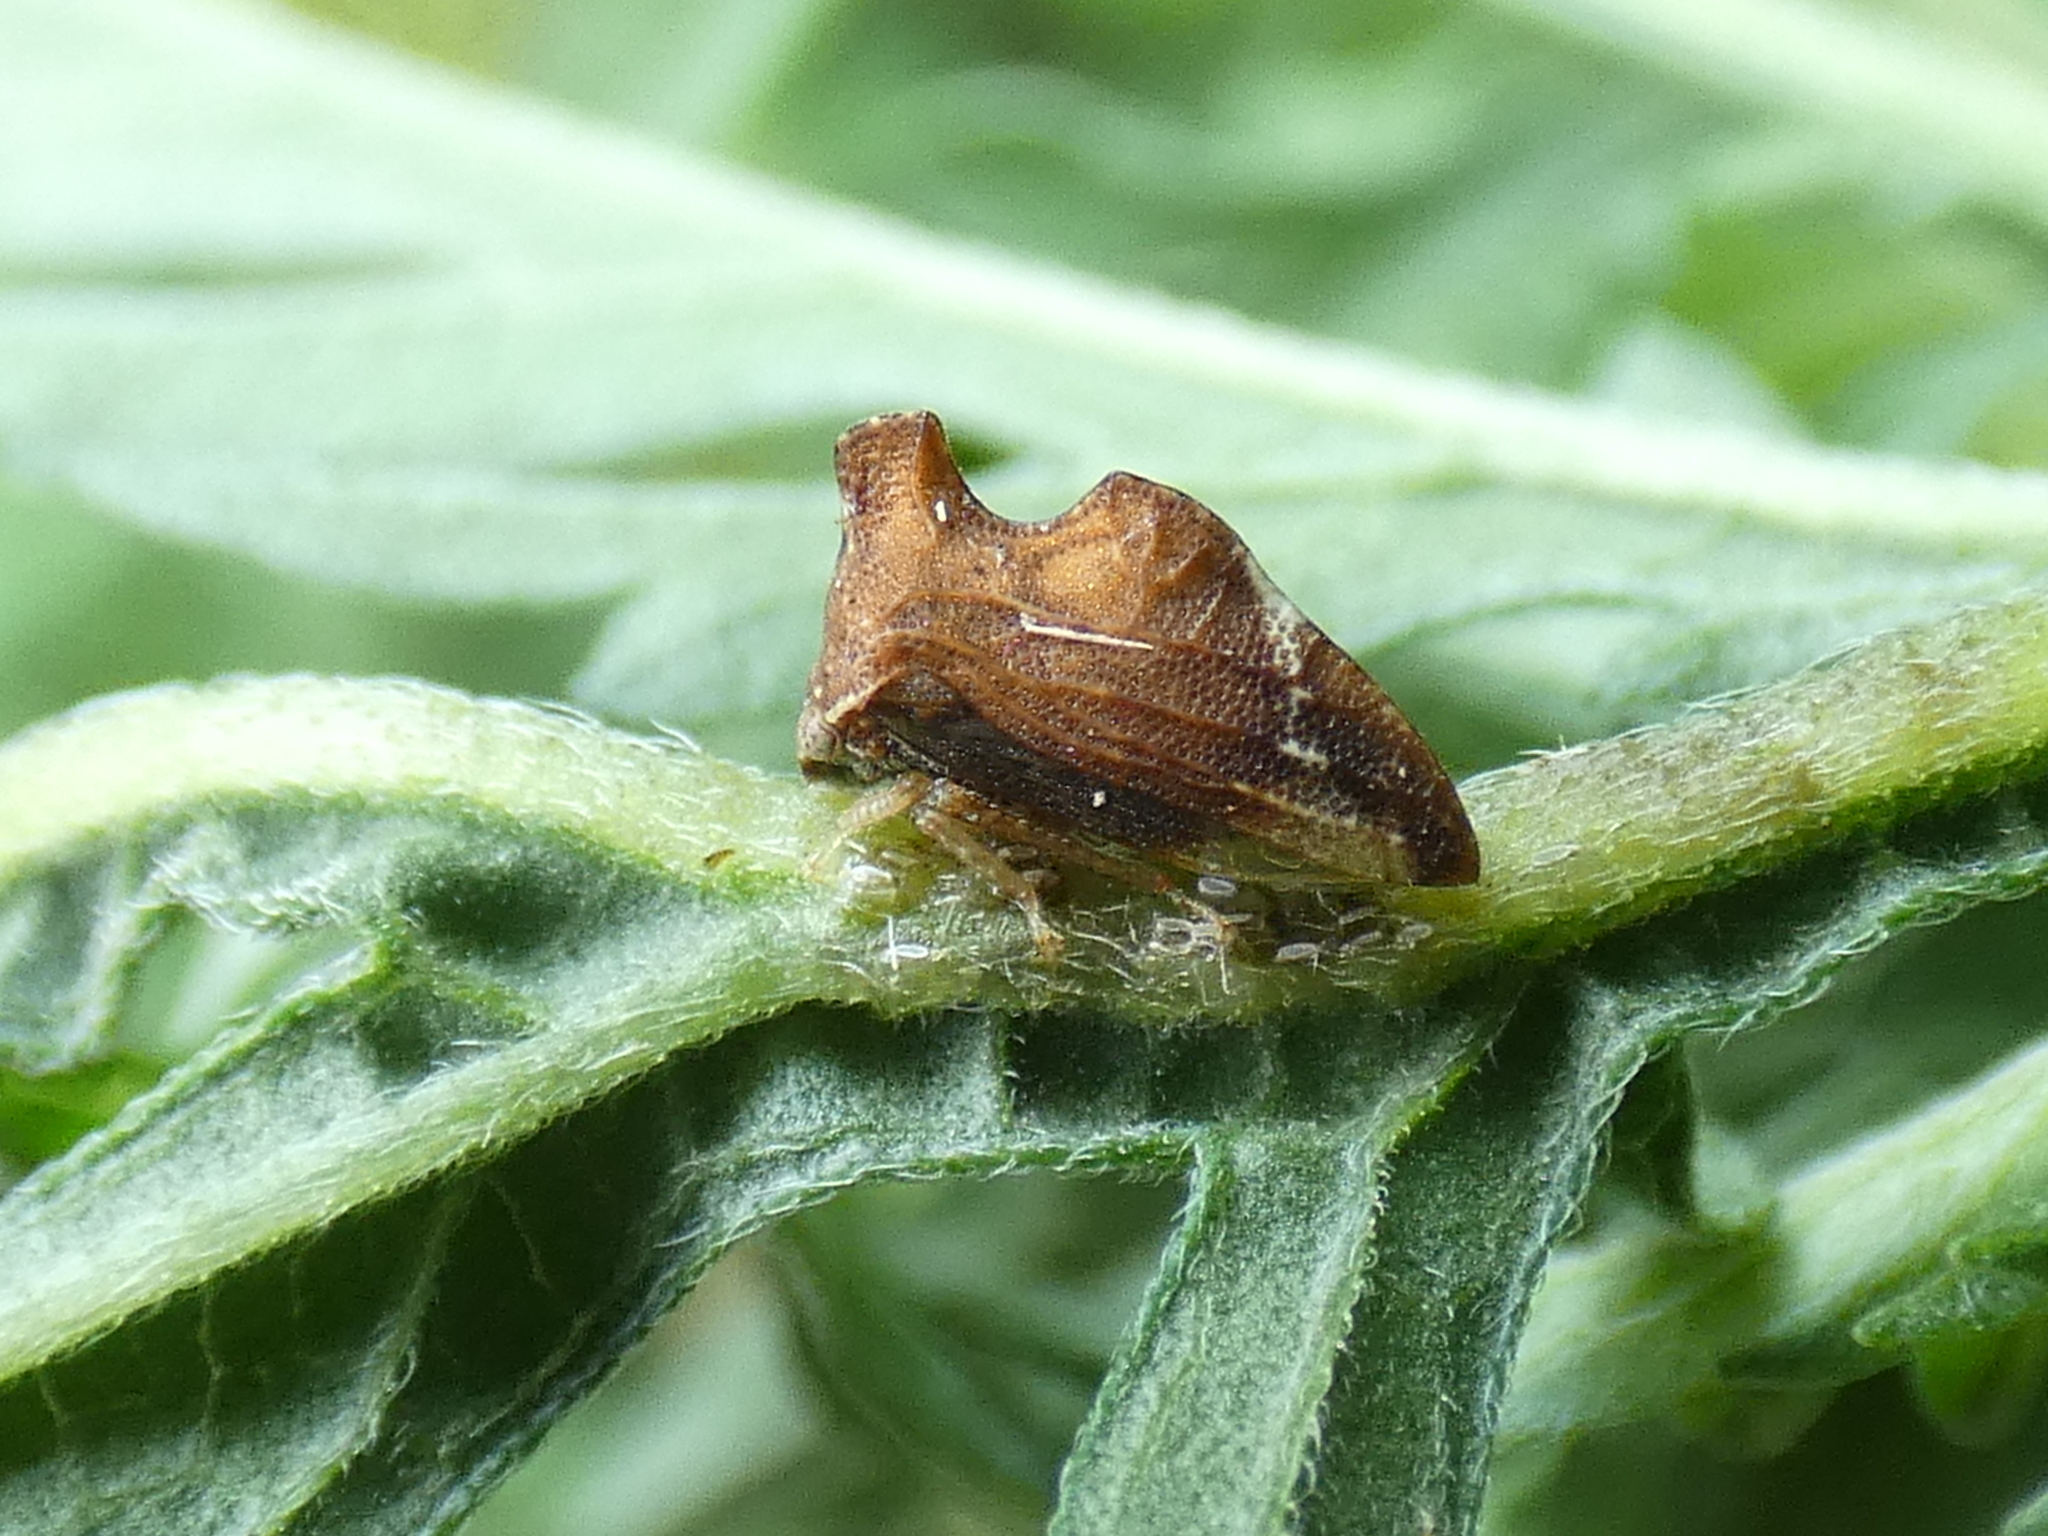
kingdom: Animalia
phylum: Arthropoda
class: Insecta
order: Hemiptera
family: Membracidae
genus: Entylia
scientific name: Entylia carinata
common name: Keeled treehopper
